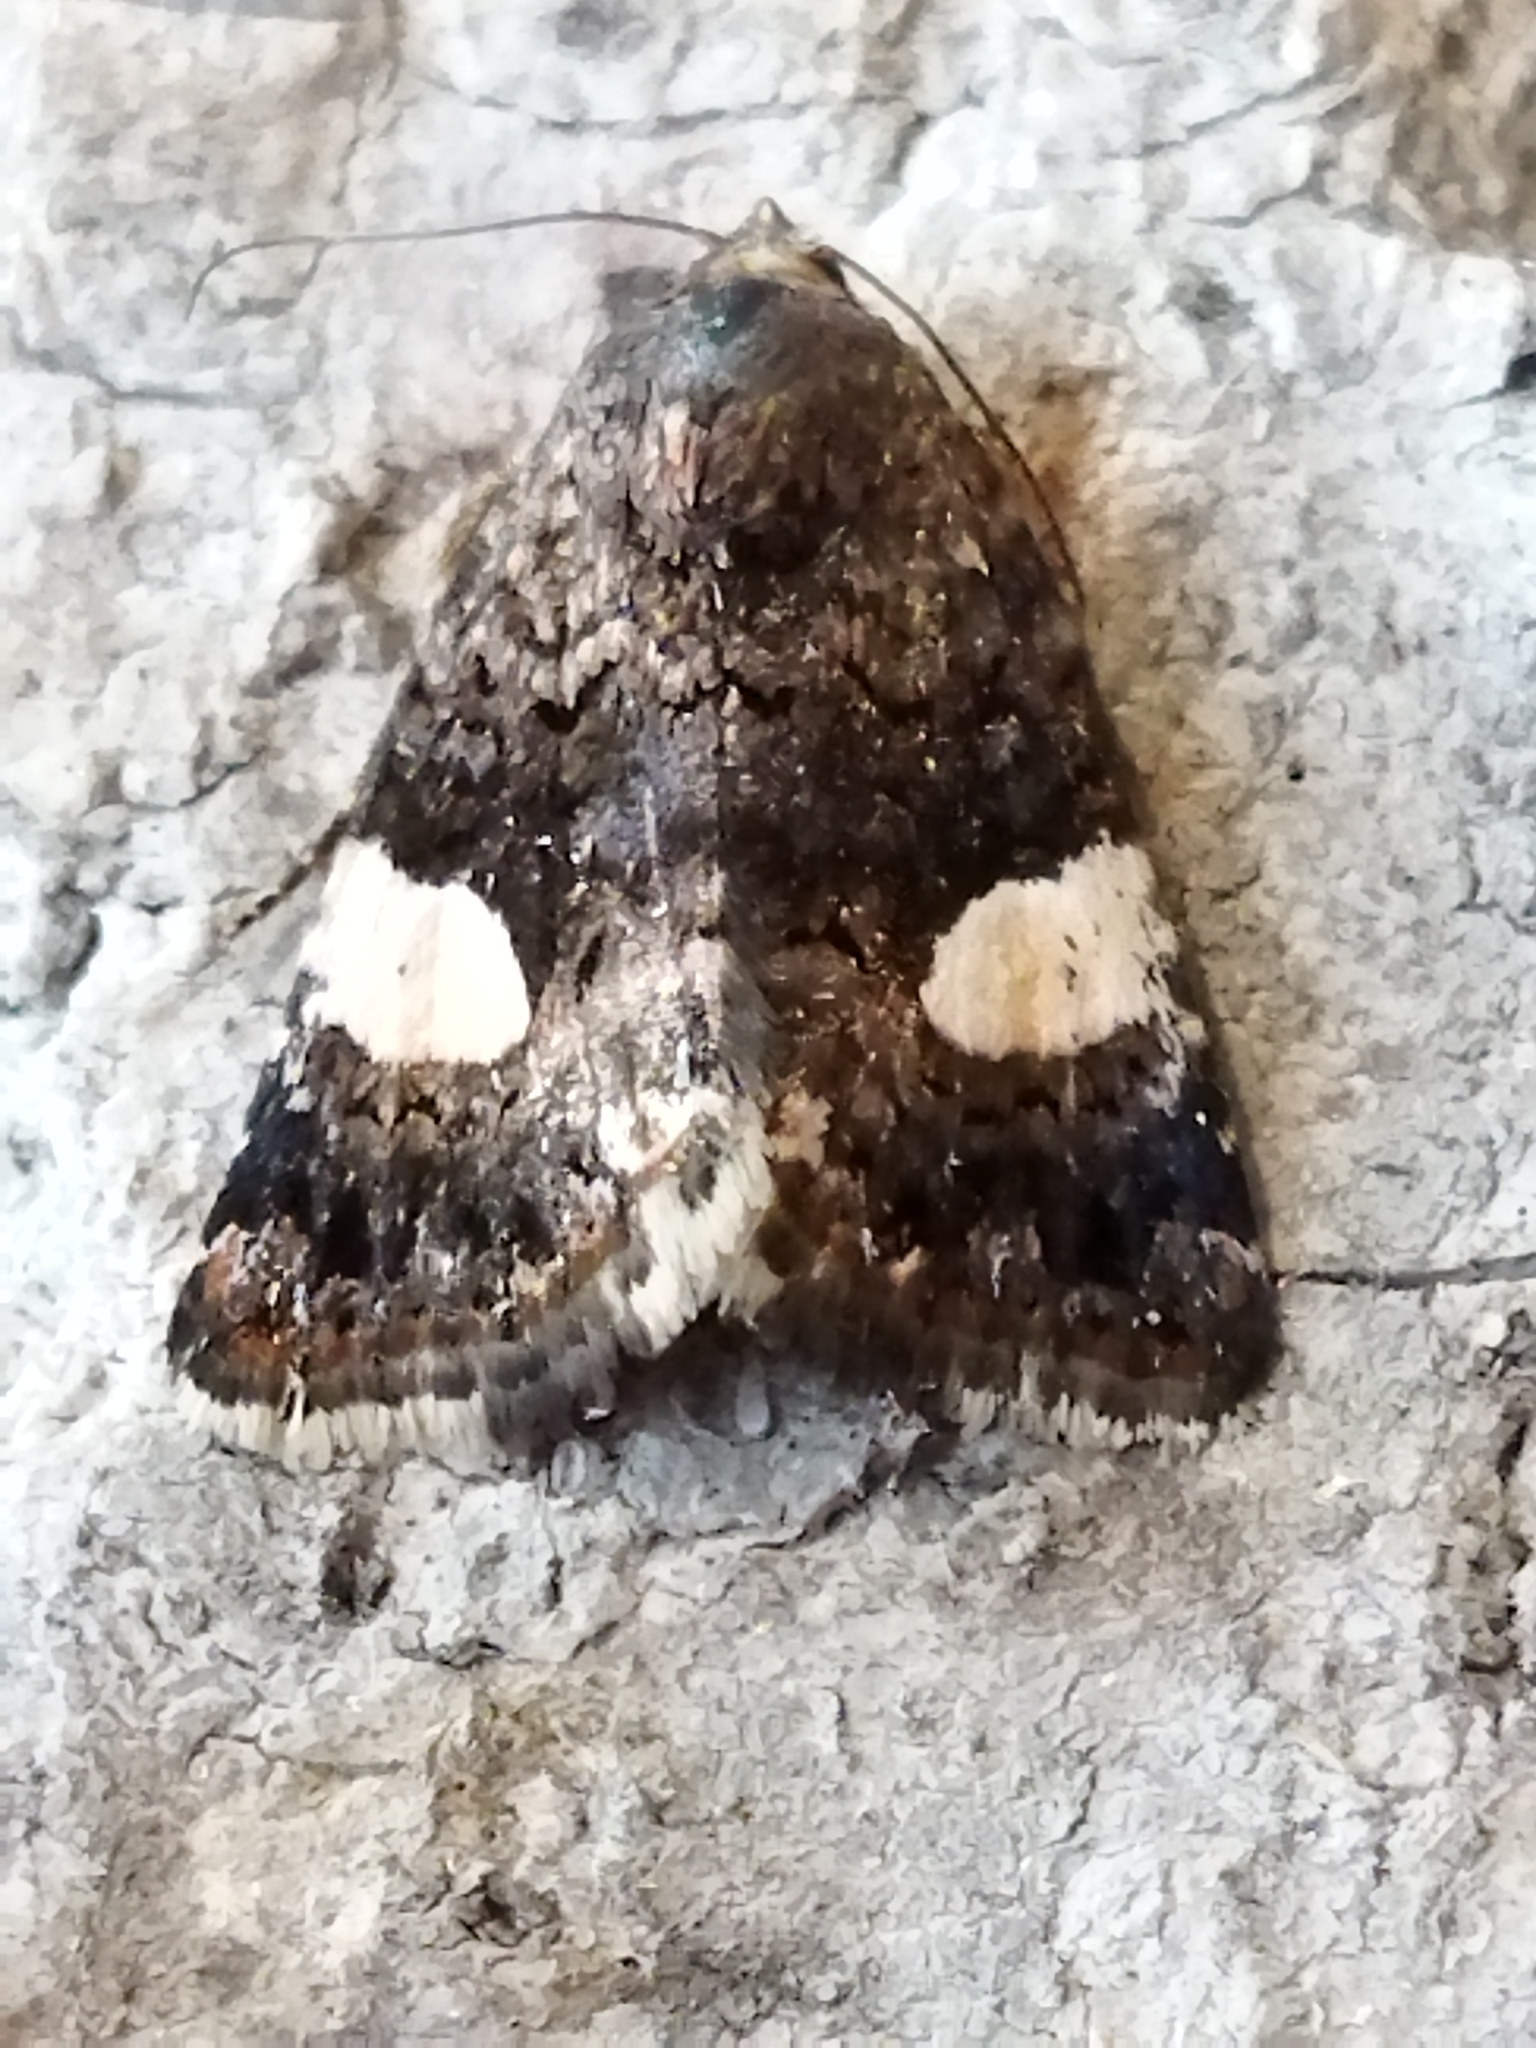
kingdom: Animalia
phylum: Arthropoda
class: Insecta
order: Lepidoptera
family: Erebidae
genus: Tyta
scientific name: Tyta luctuosa
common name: Four-spotted
